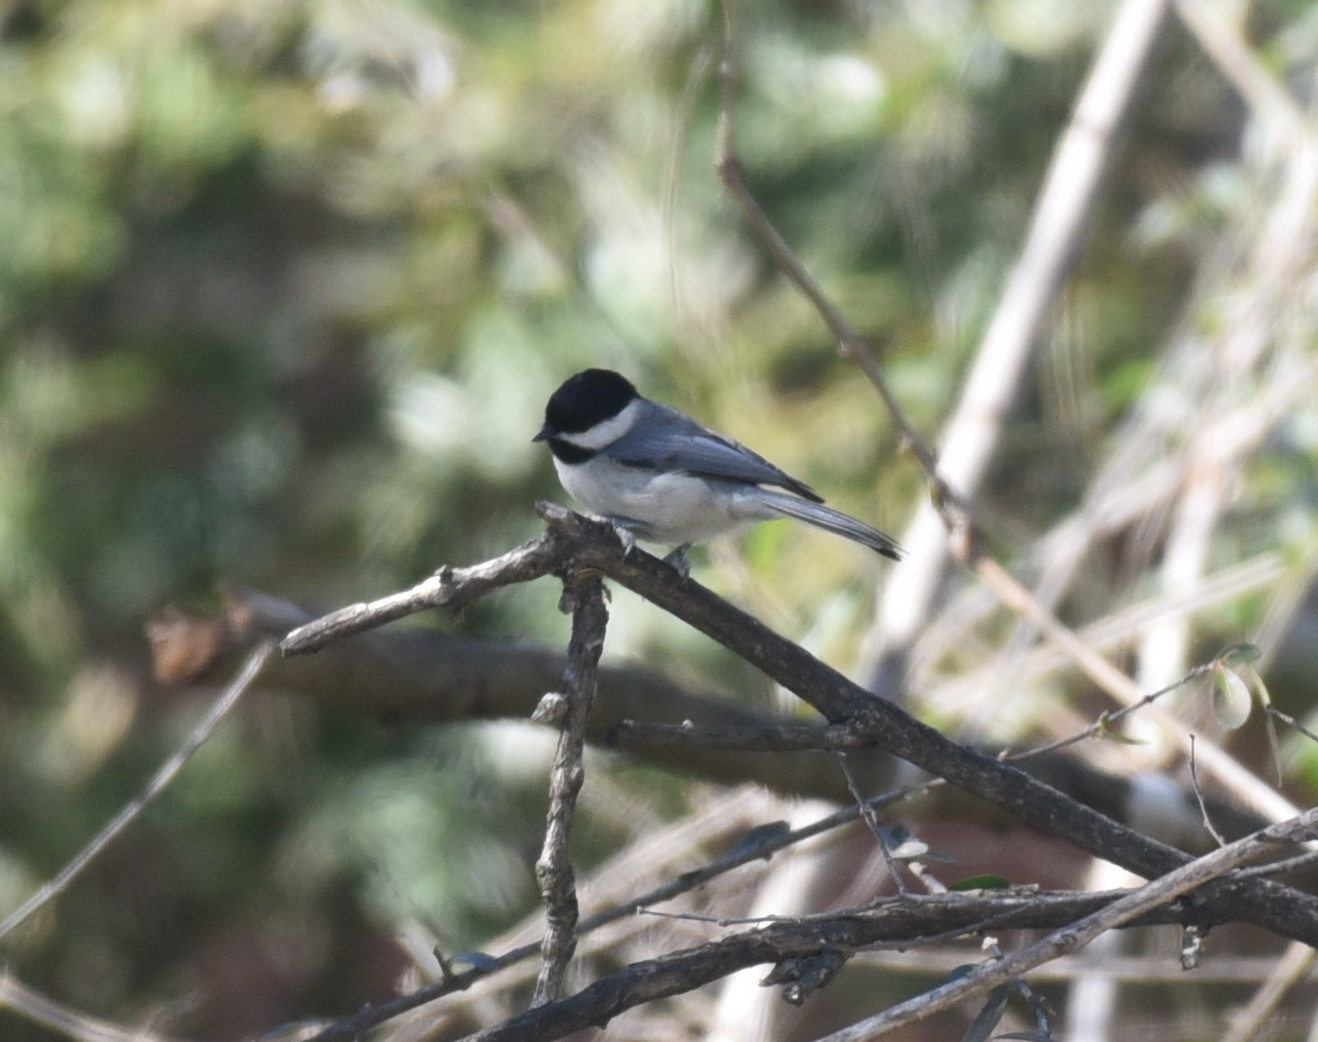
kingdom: Animalia
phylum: Chordata
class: Aves
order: Passeriformes
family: Paridae
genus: Poecile
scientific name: Poecile carolinensis
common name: Carolina chickadee
